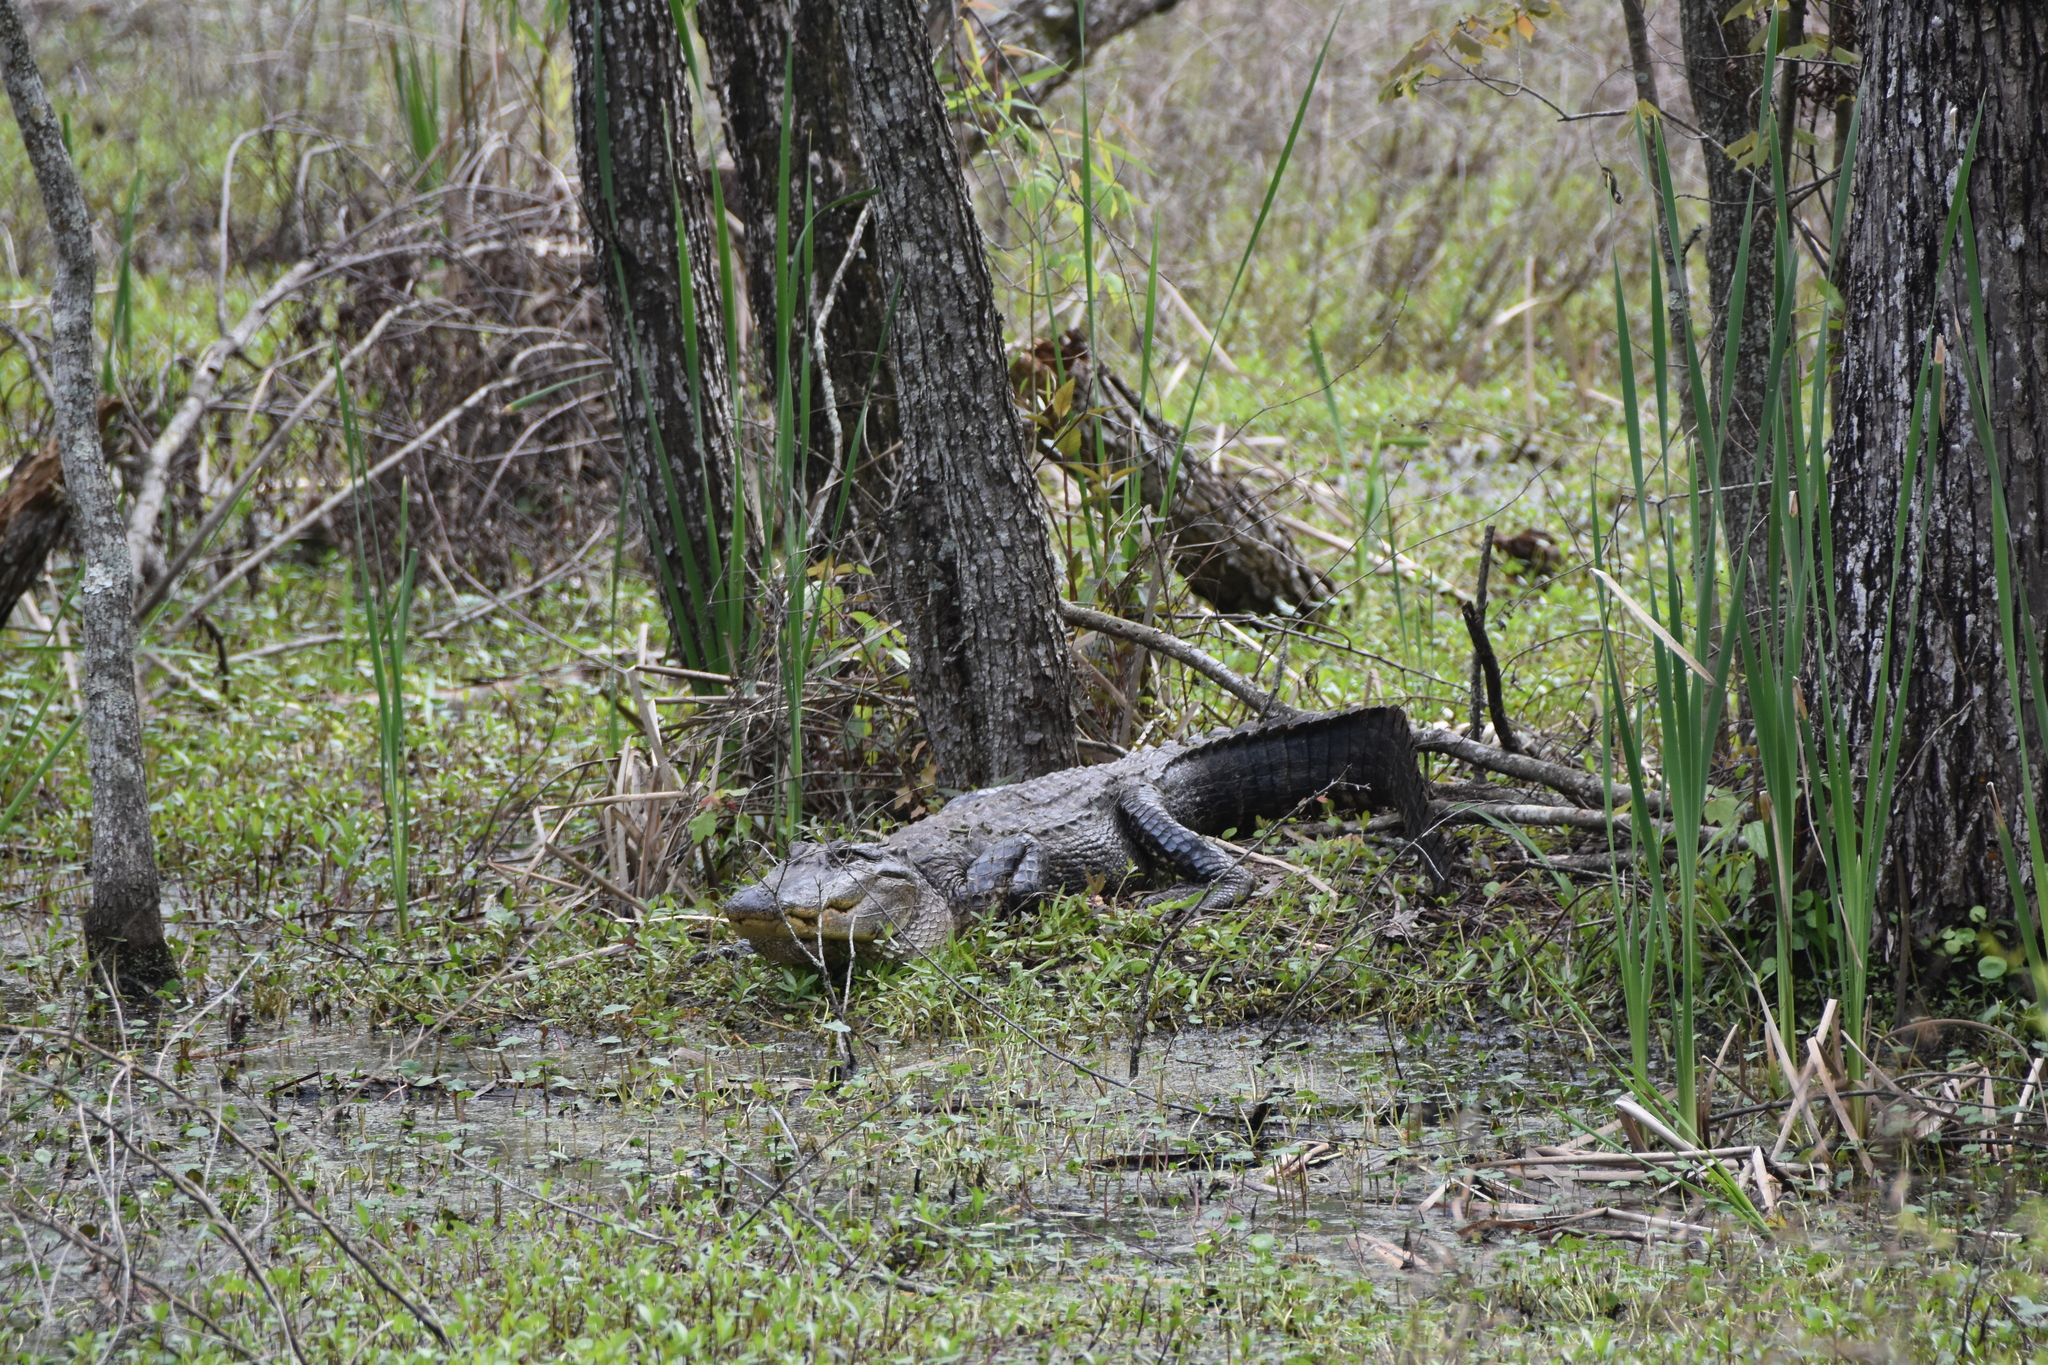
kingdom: Animalia
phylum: Chordata
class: Crocodylia
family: Alligatoridae
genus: Alligator
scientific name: Alligator mississippiensis
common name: American alligator
